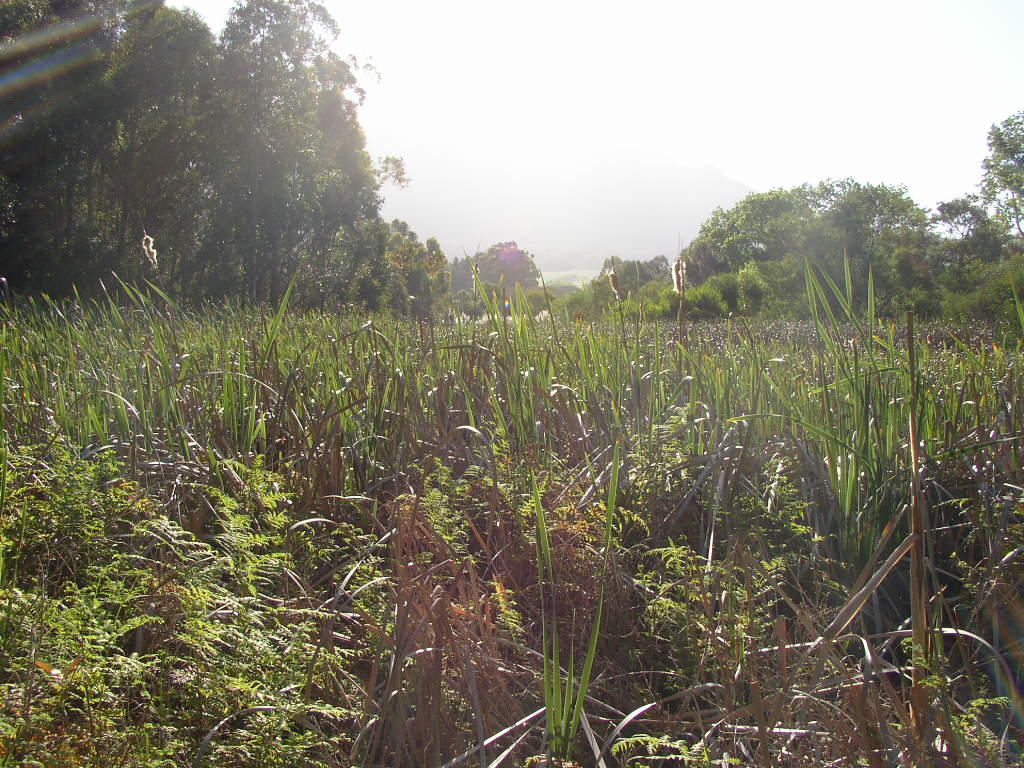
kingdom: Plantae
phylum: Tracheophyta
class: Liliopsida
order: Poales
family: Typhaceae
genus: Typha
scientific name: Typha capensis
